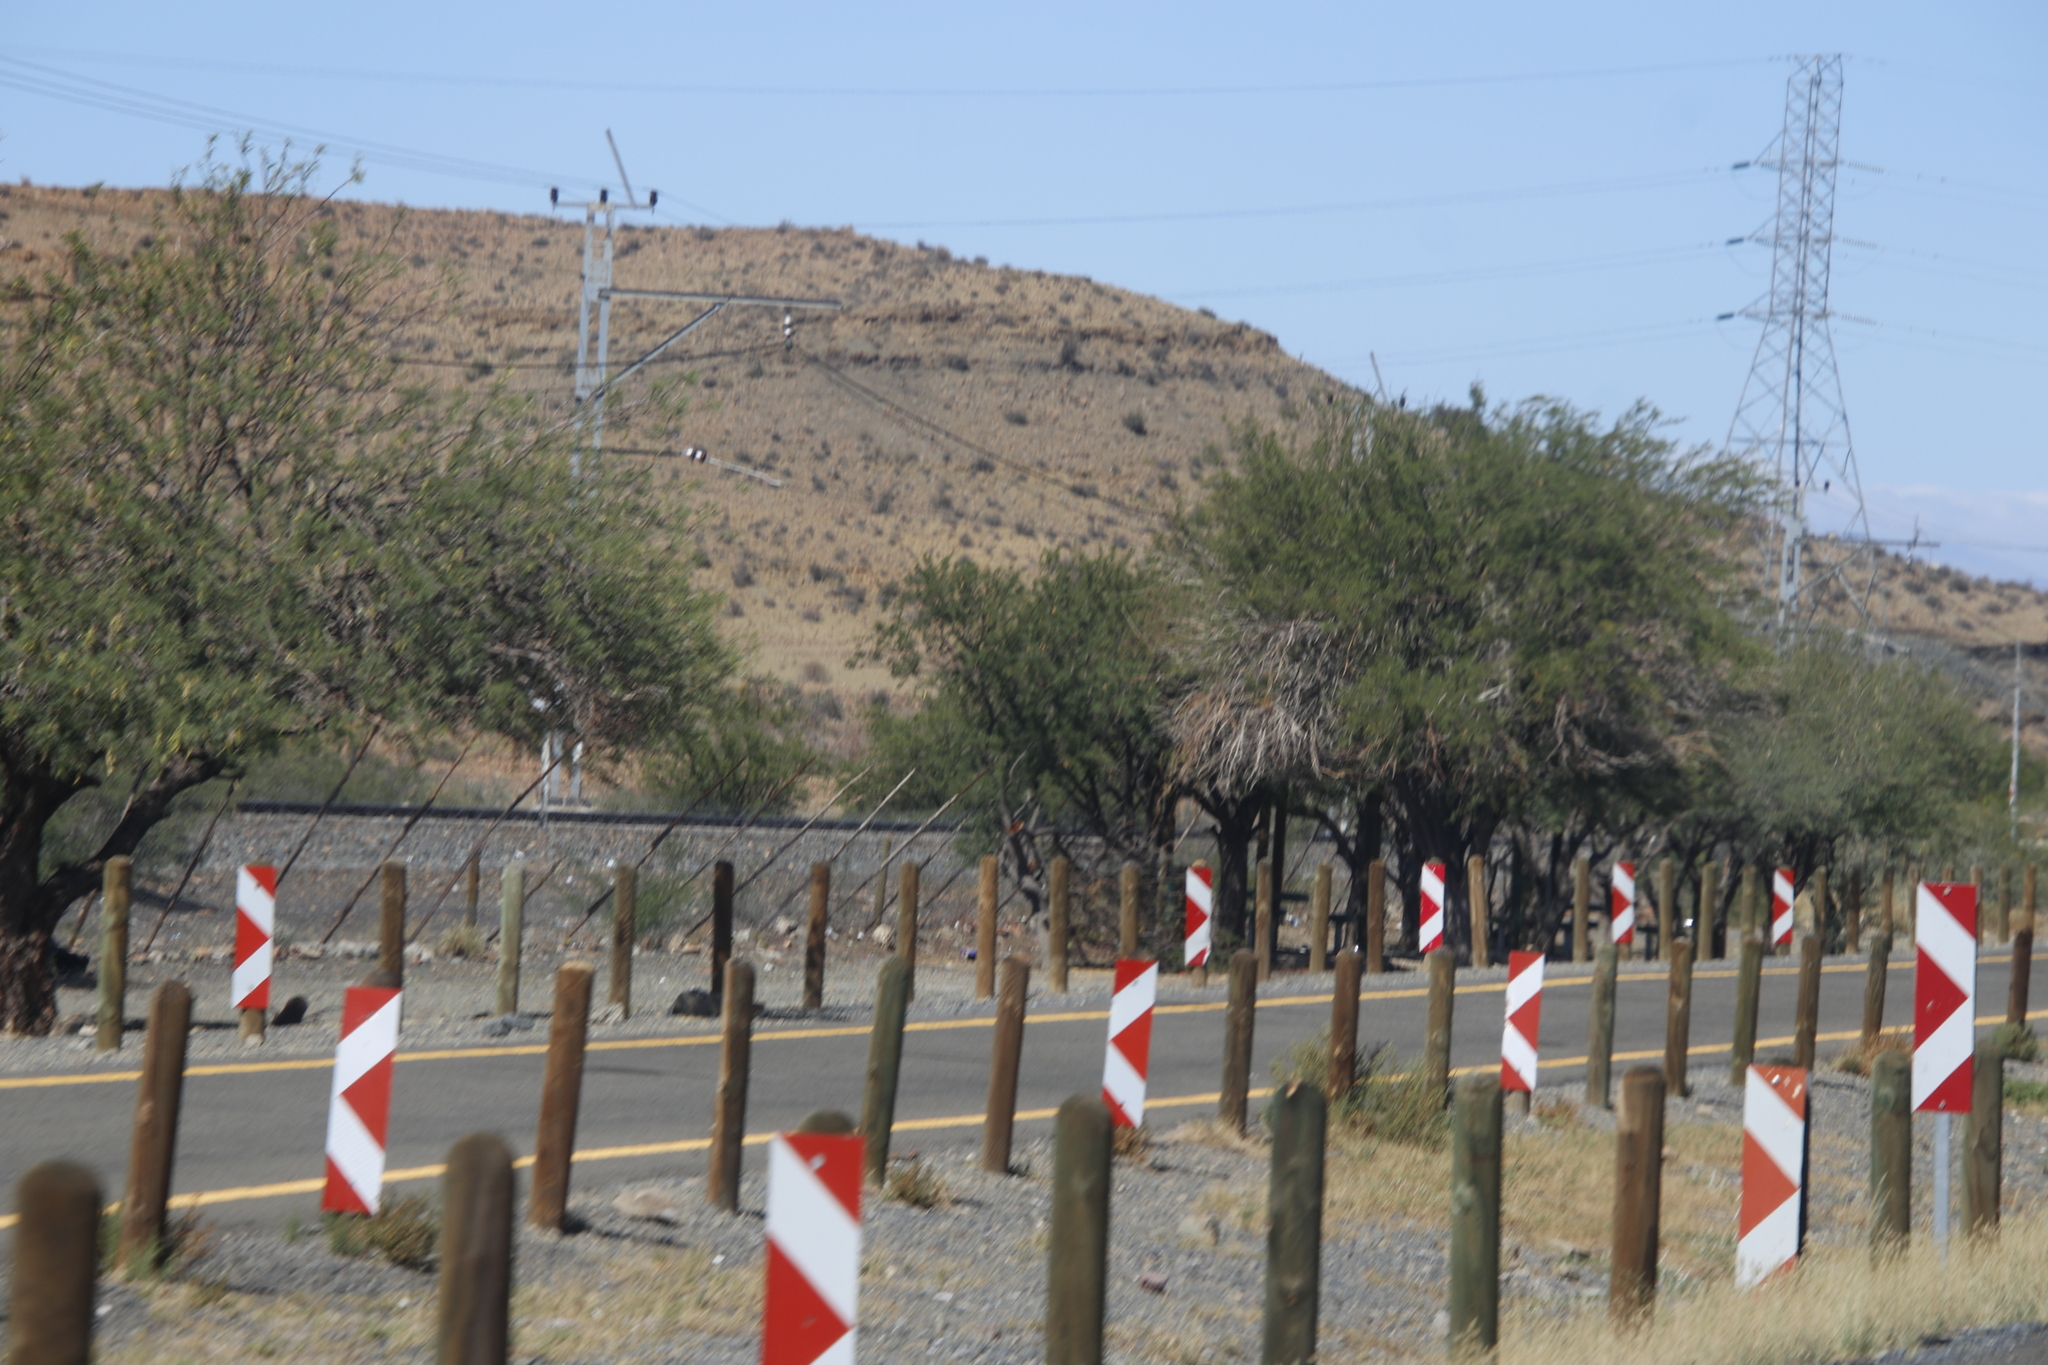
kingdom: Plantae
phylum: Tracheophyta
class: Magnoliopsida
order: Fabales
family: Fabaceae
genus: Vachellia
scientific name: Vachellia karroo
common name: Sweet thorn
